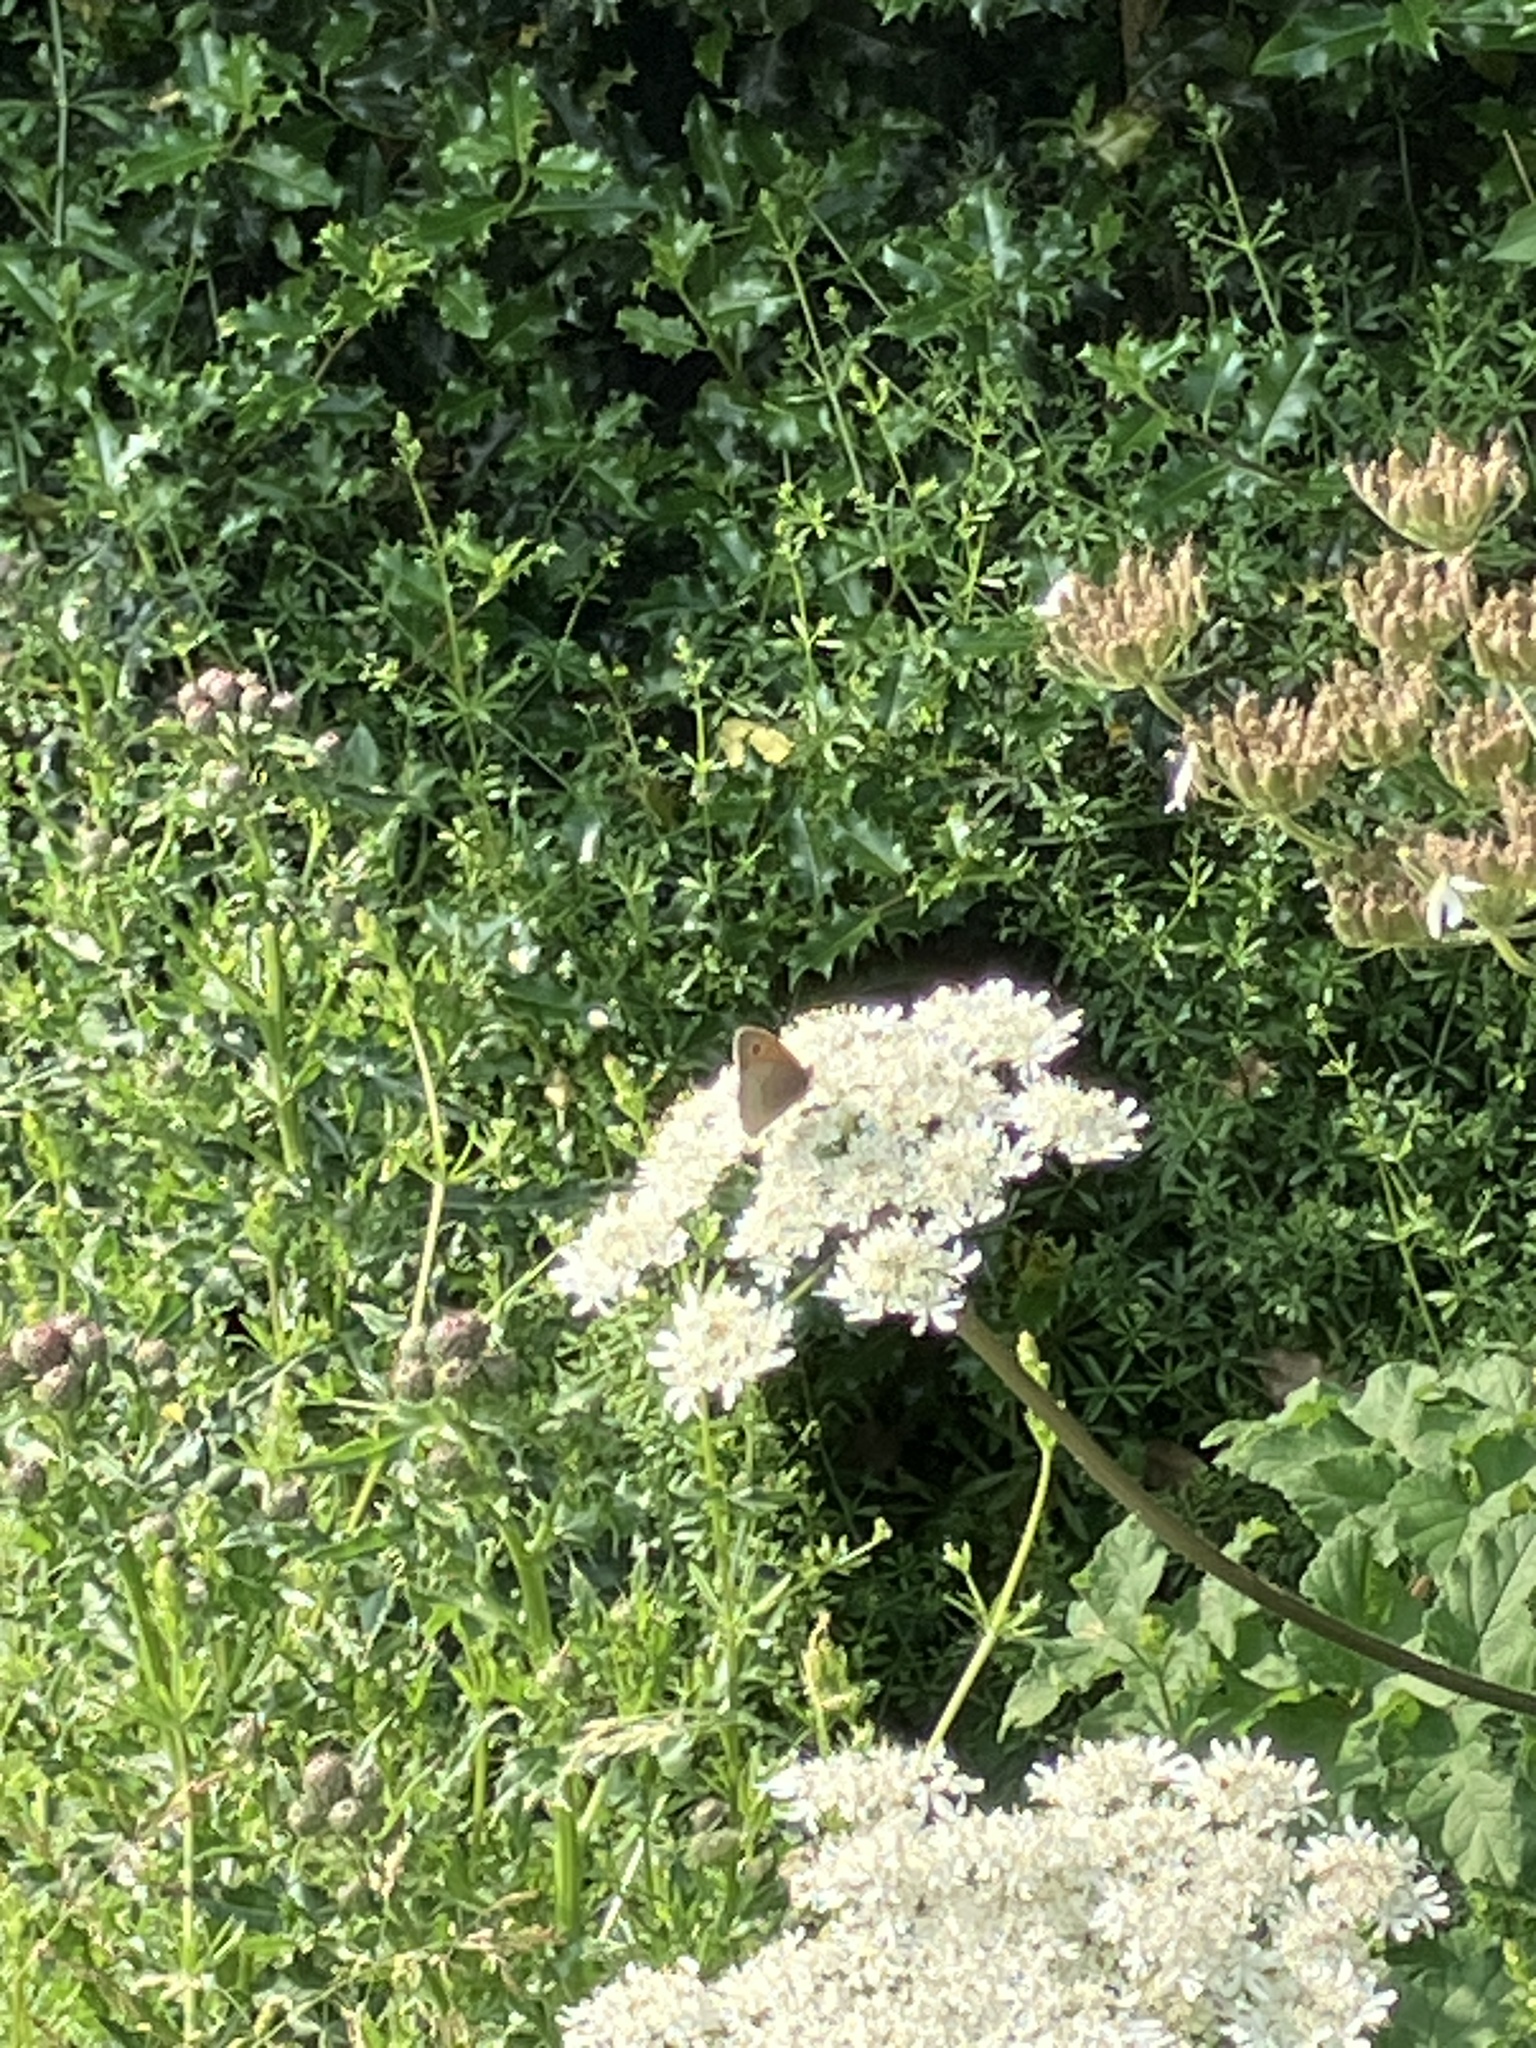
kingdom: Animalia
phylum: Arthropoda
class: Insecta
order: Lepidoptera
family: Nymphalidae
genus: Maniola
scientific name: Maniola jurtina
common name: Meadow brown
